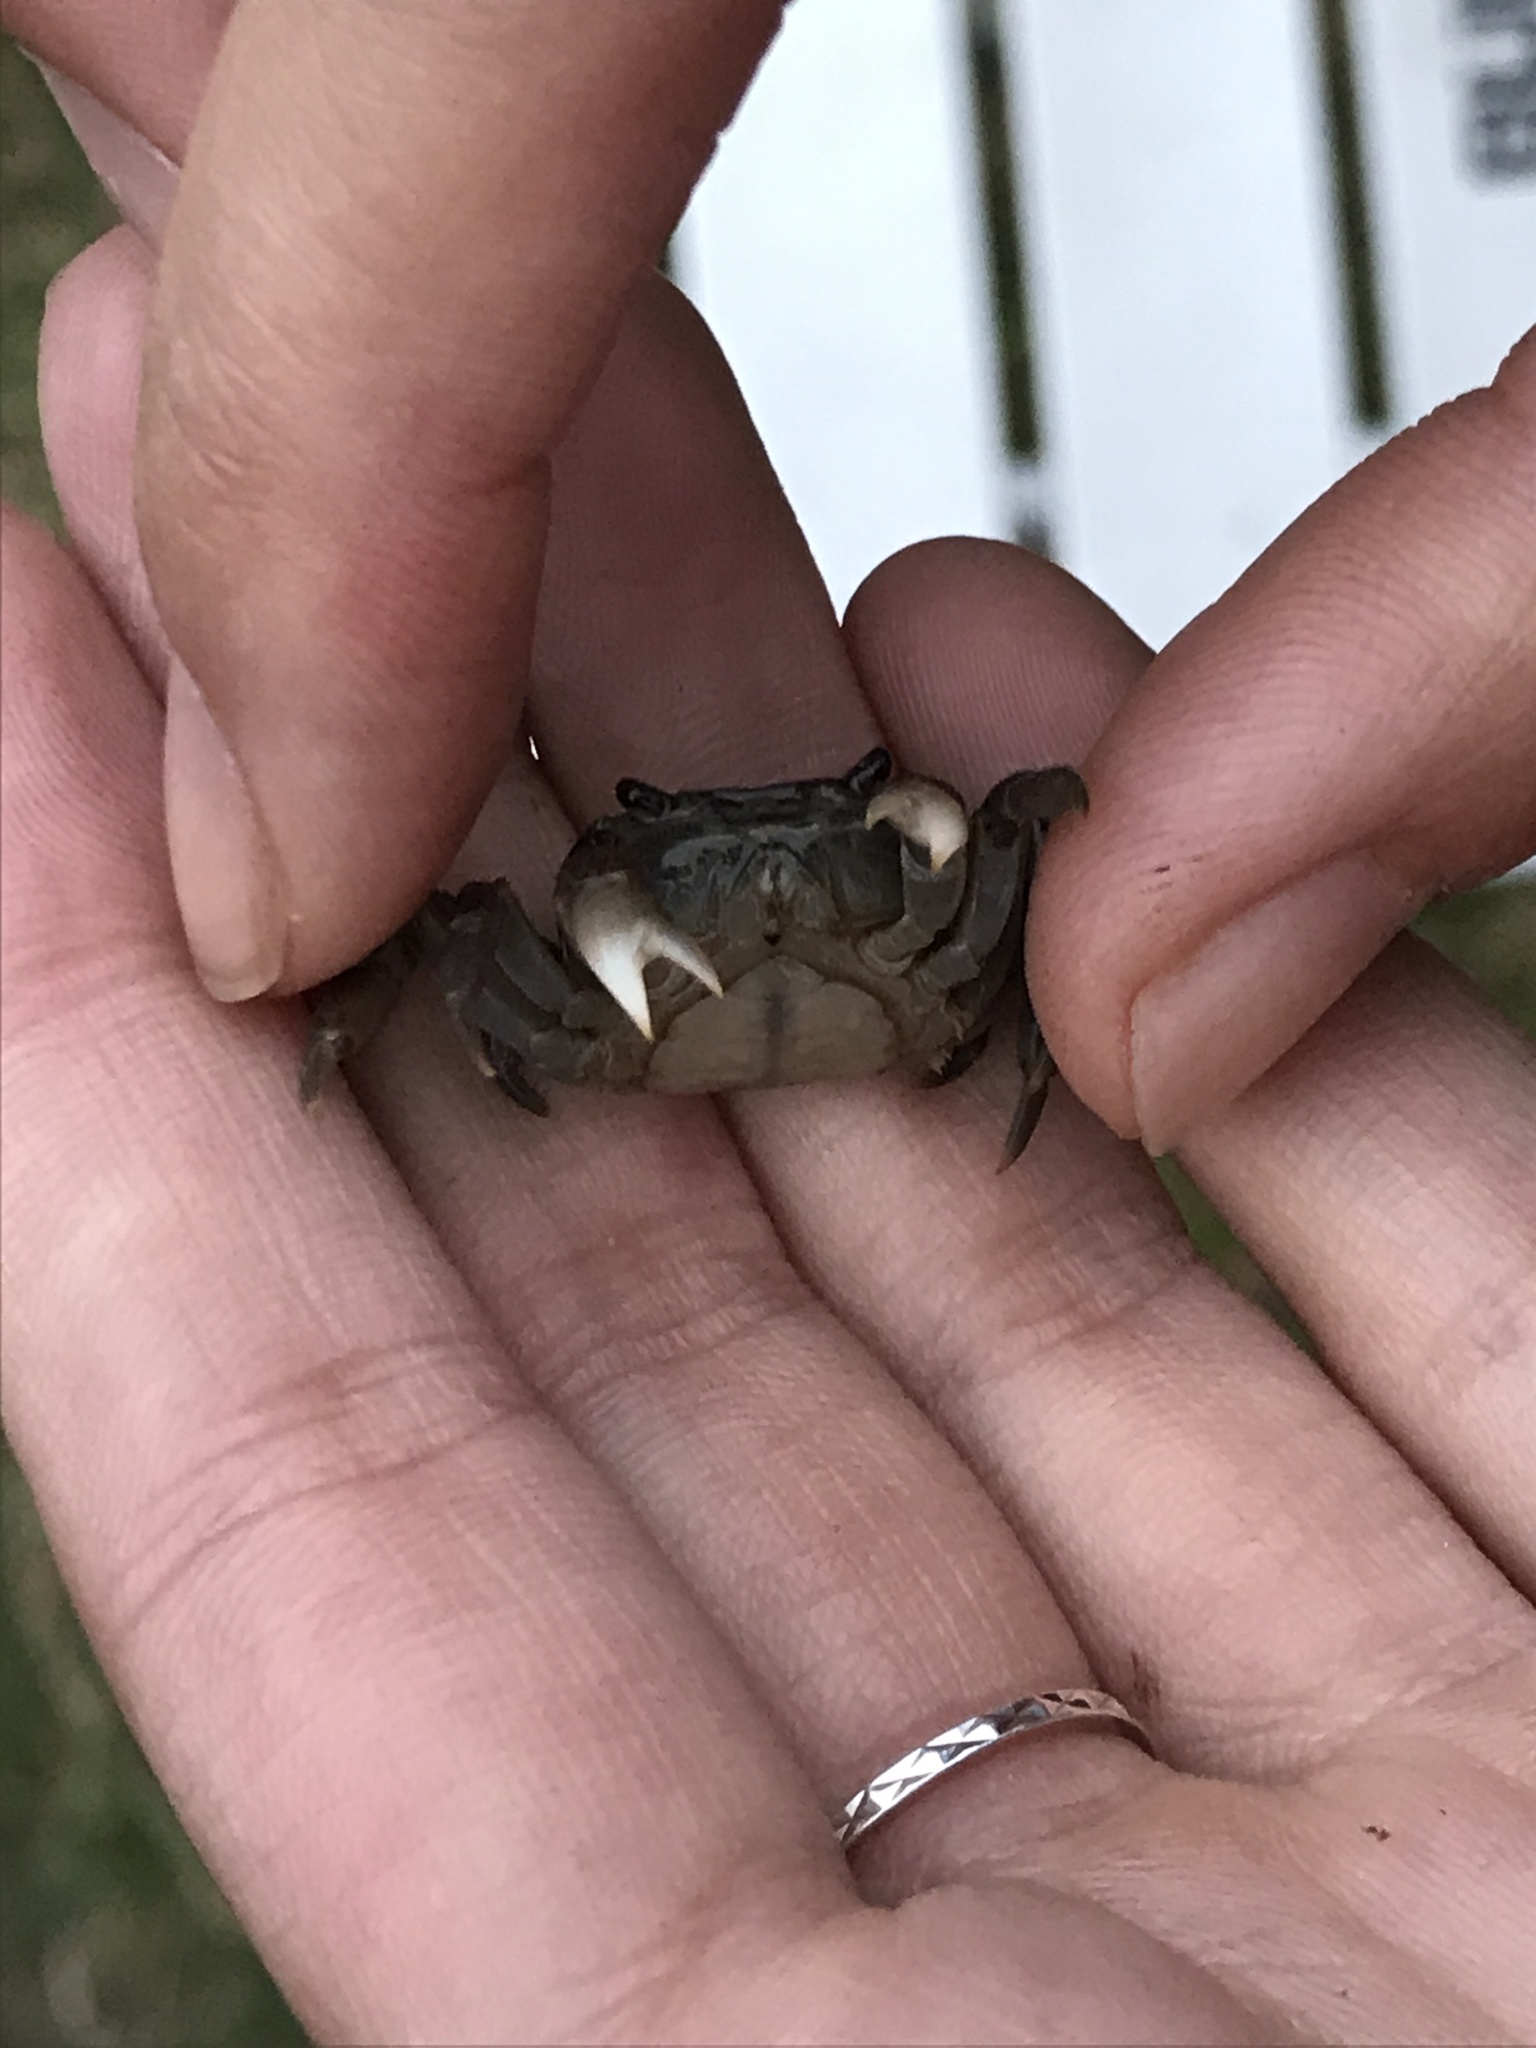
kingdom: Animalia
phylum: Arthropoda
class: Malacostraca
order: Decapoda
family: Varunidae
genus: Cyclograpsus
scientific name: Cyclograpsus lavauxi
